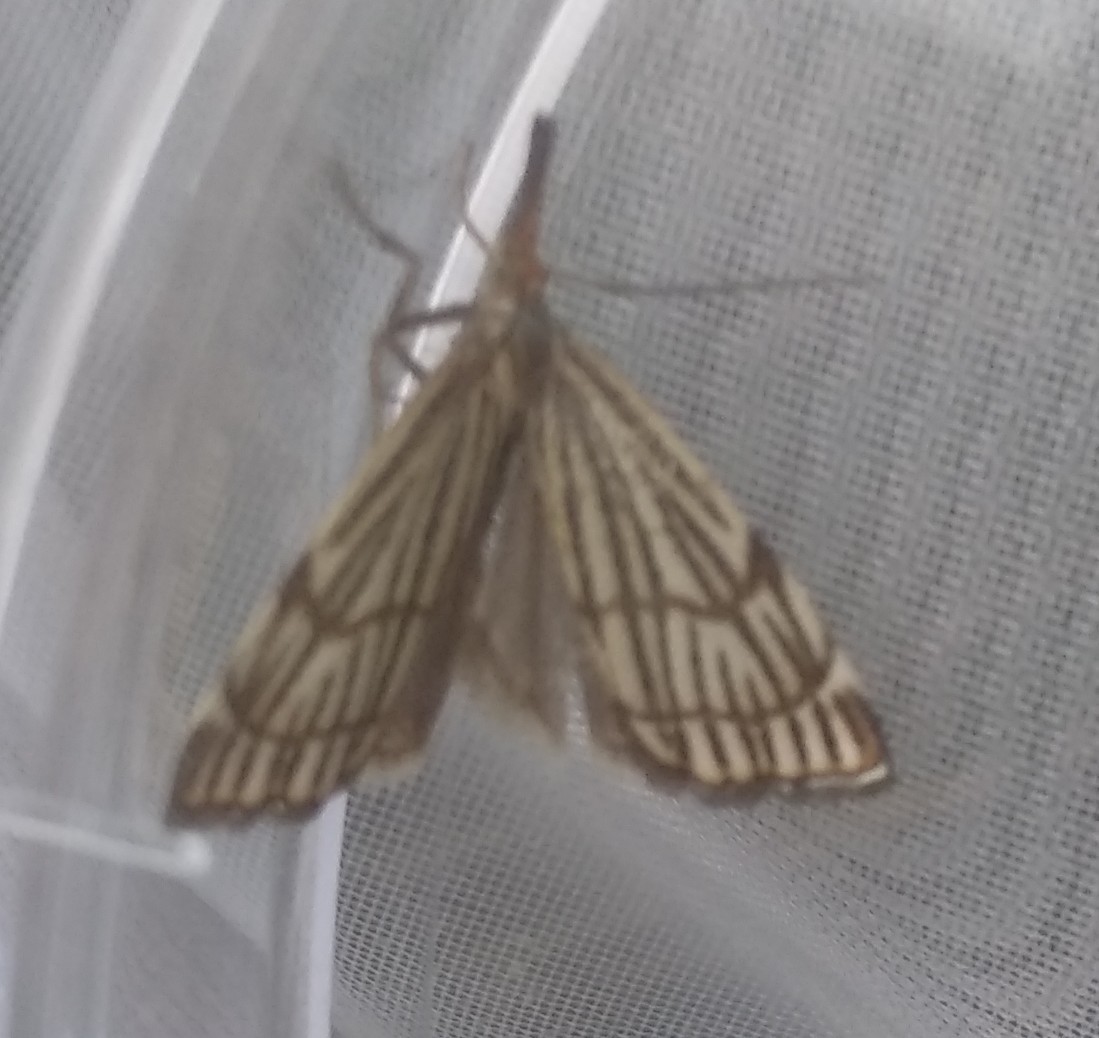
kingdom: Animalia
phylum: Arthropoda
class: Insecta
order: Lepidoptera
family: Crambidae
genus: Chrysocrambus
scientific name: Chrysocrambus Chrysocramboides craterellus
